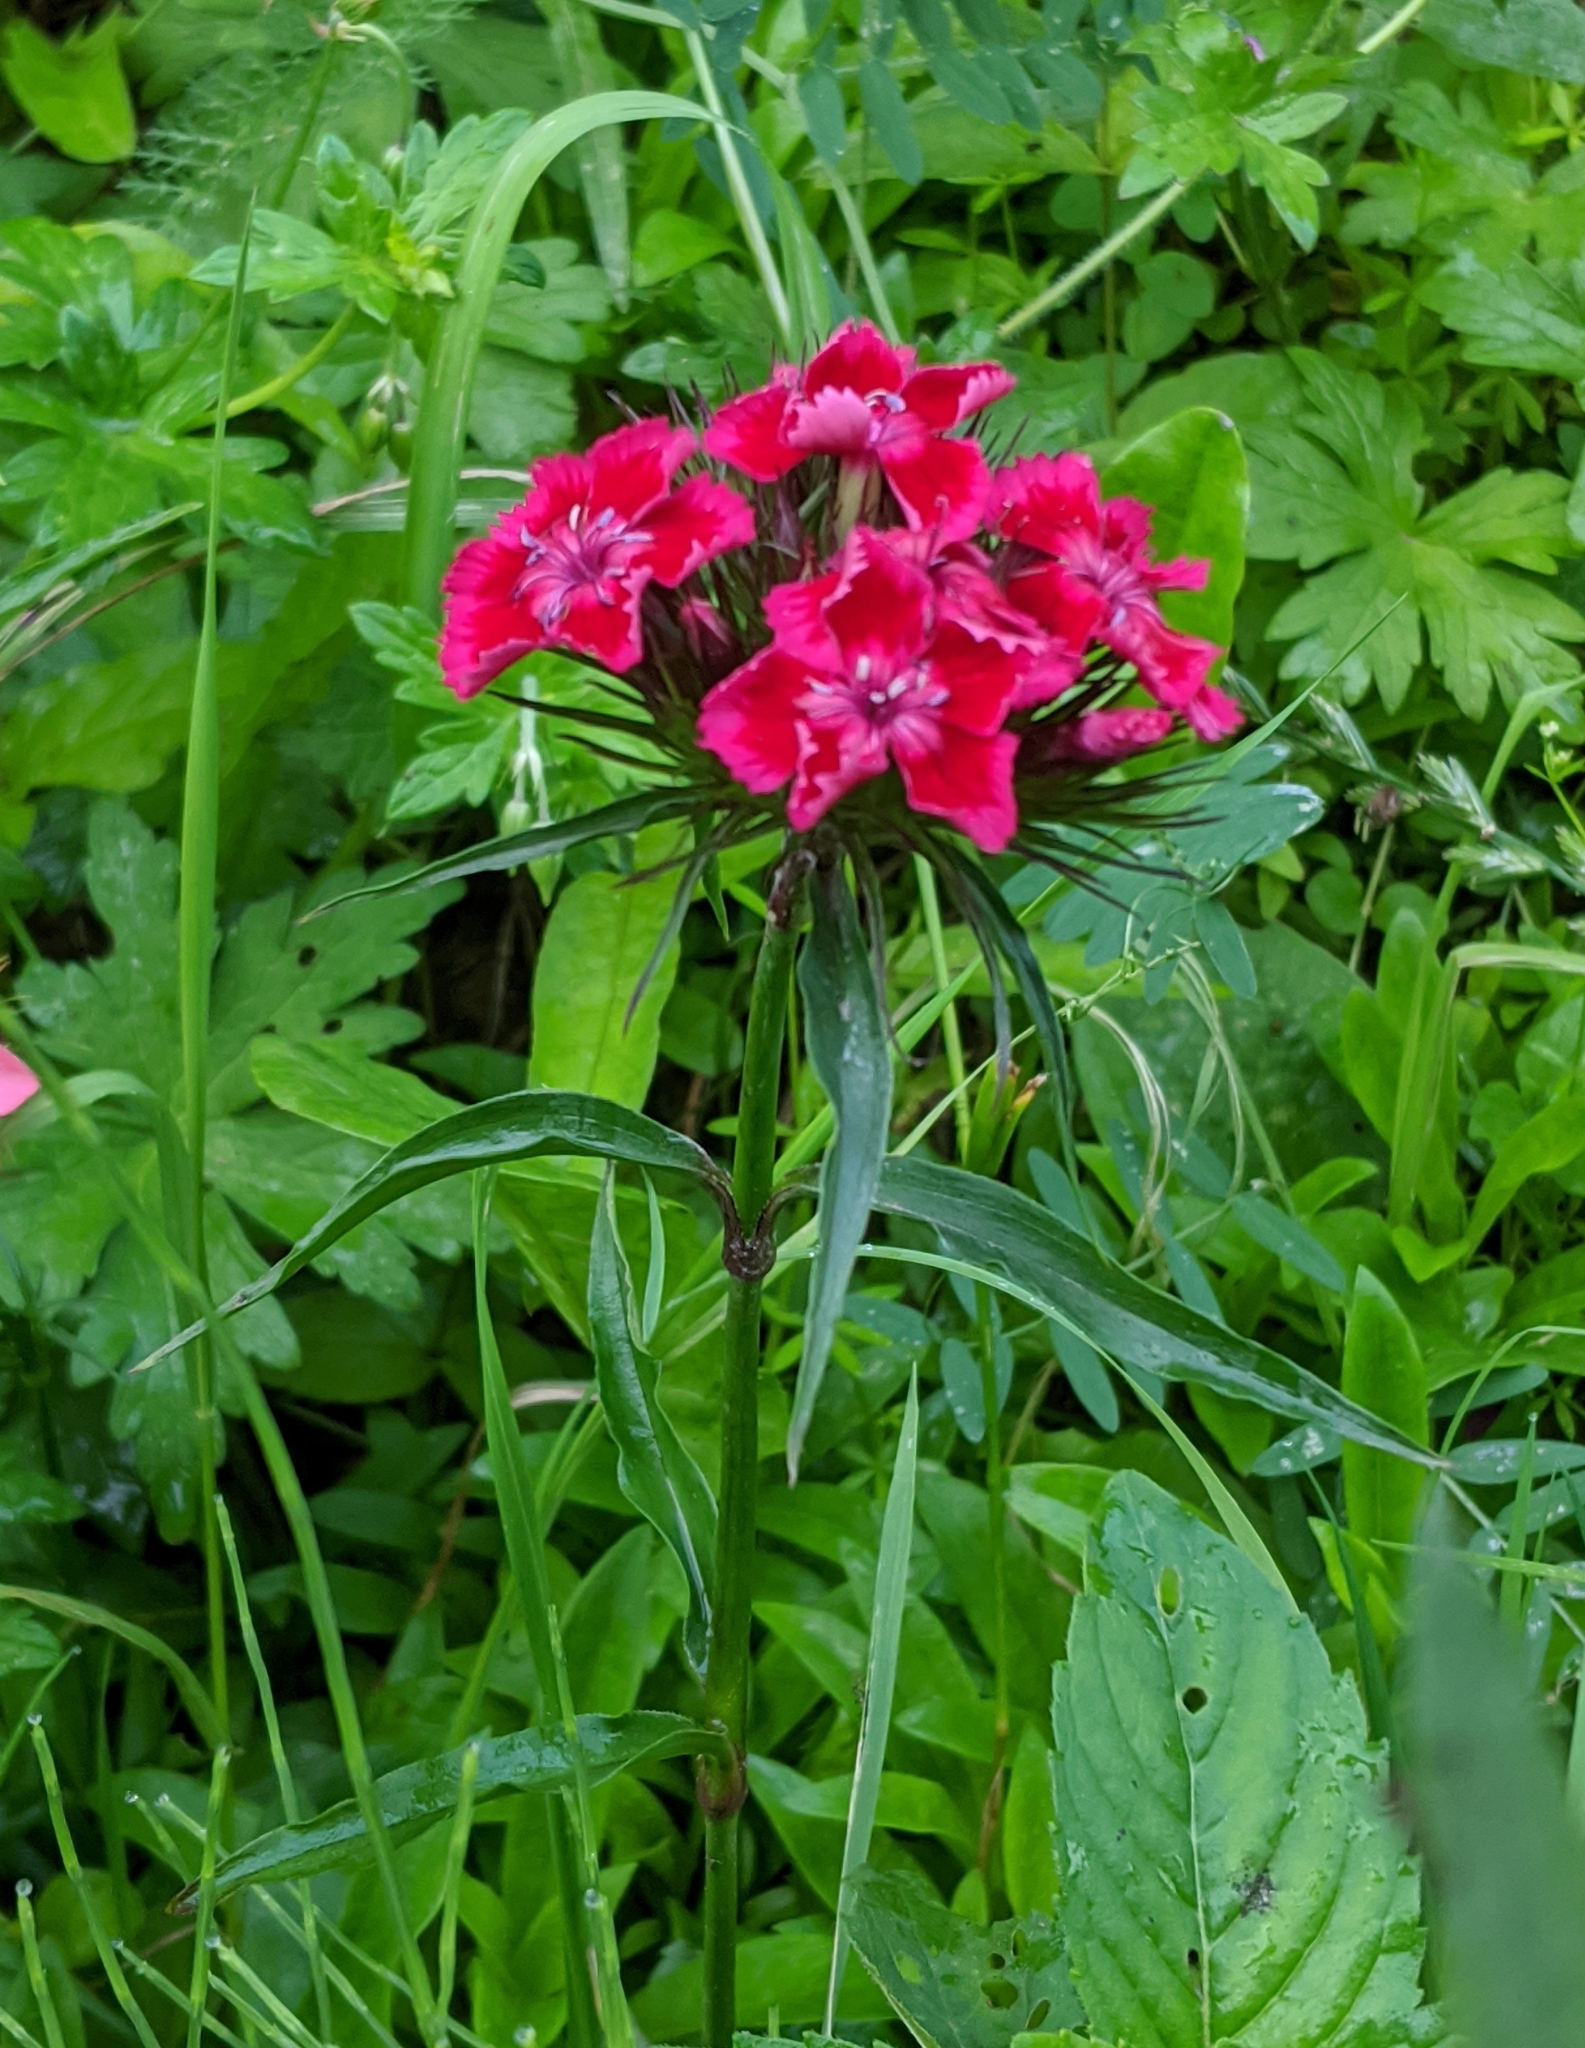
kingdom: Plantae
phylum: Tracheophyta
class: Magnoliopsida
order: Caryophyllales
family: Caryophyllaceae
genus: Dianthus
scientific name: Dianthus barbatus
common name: Sweet-william
